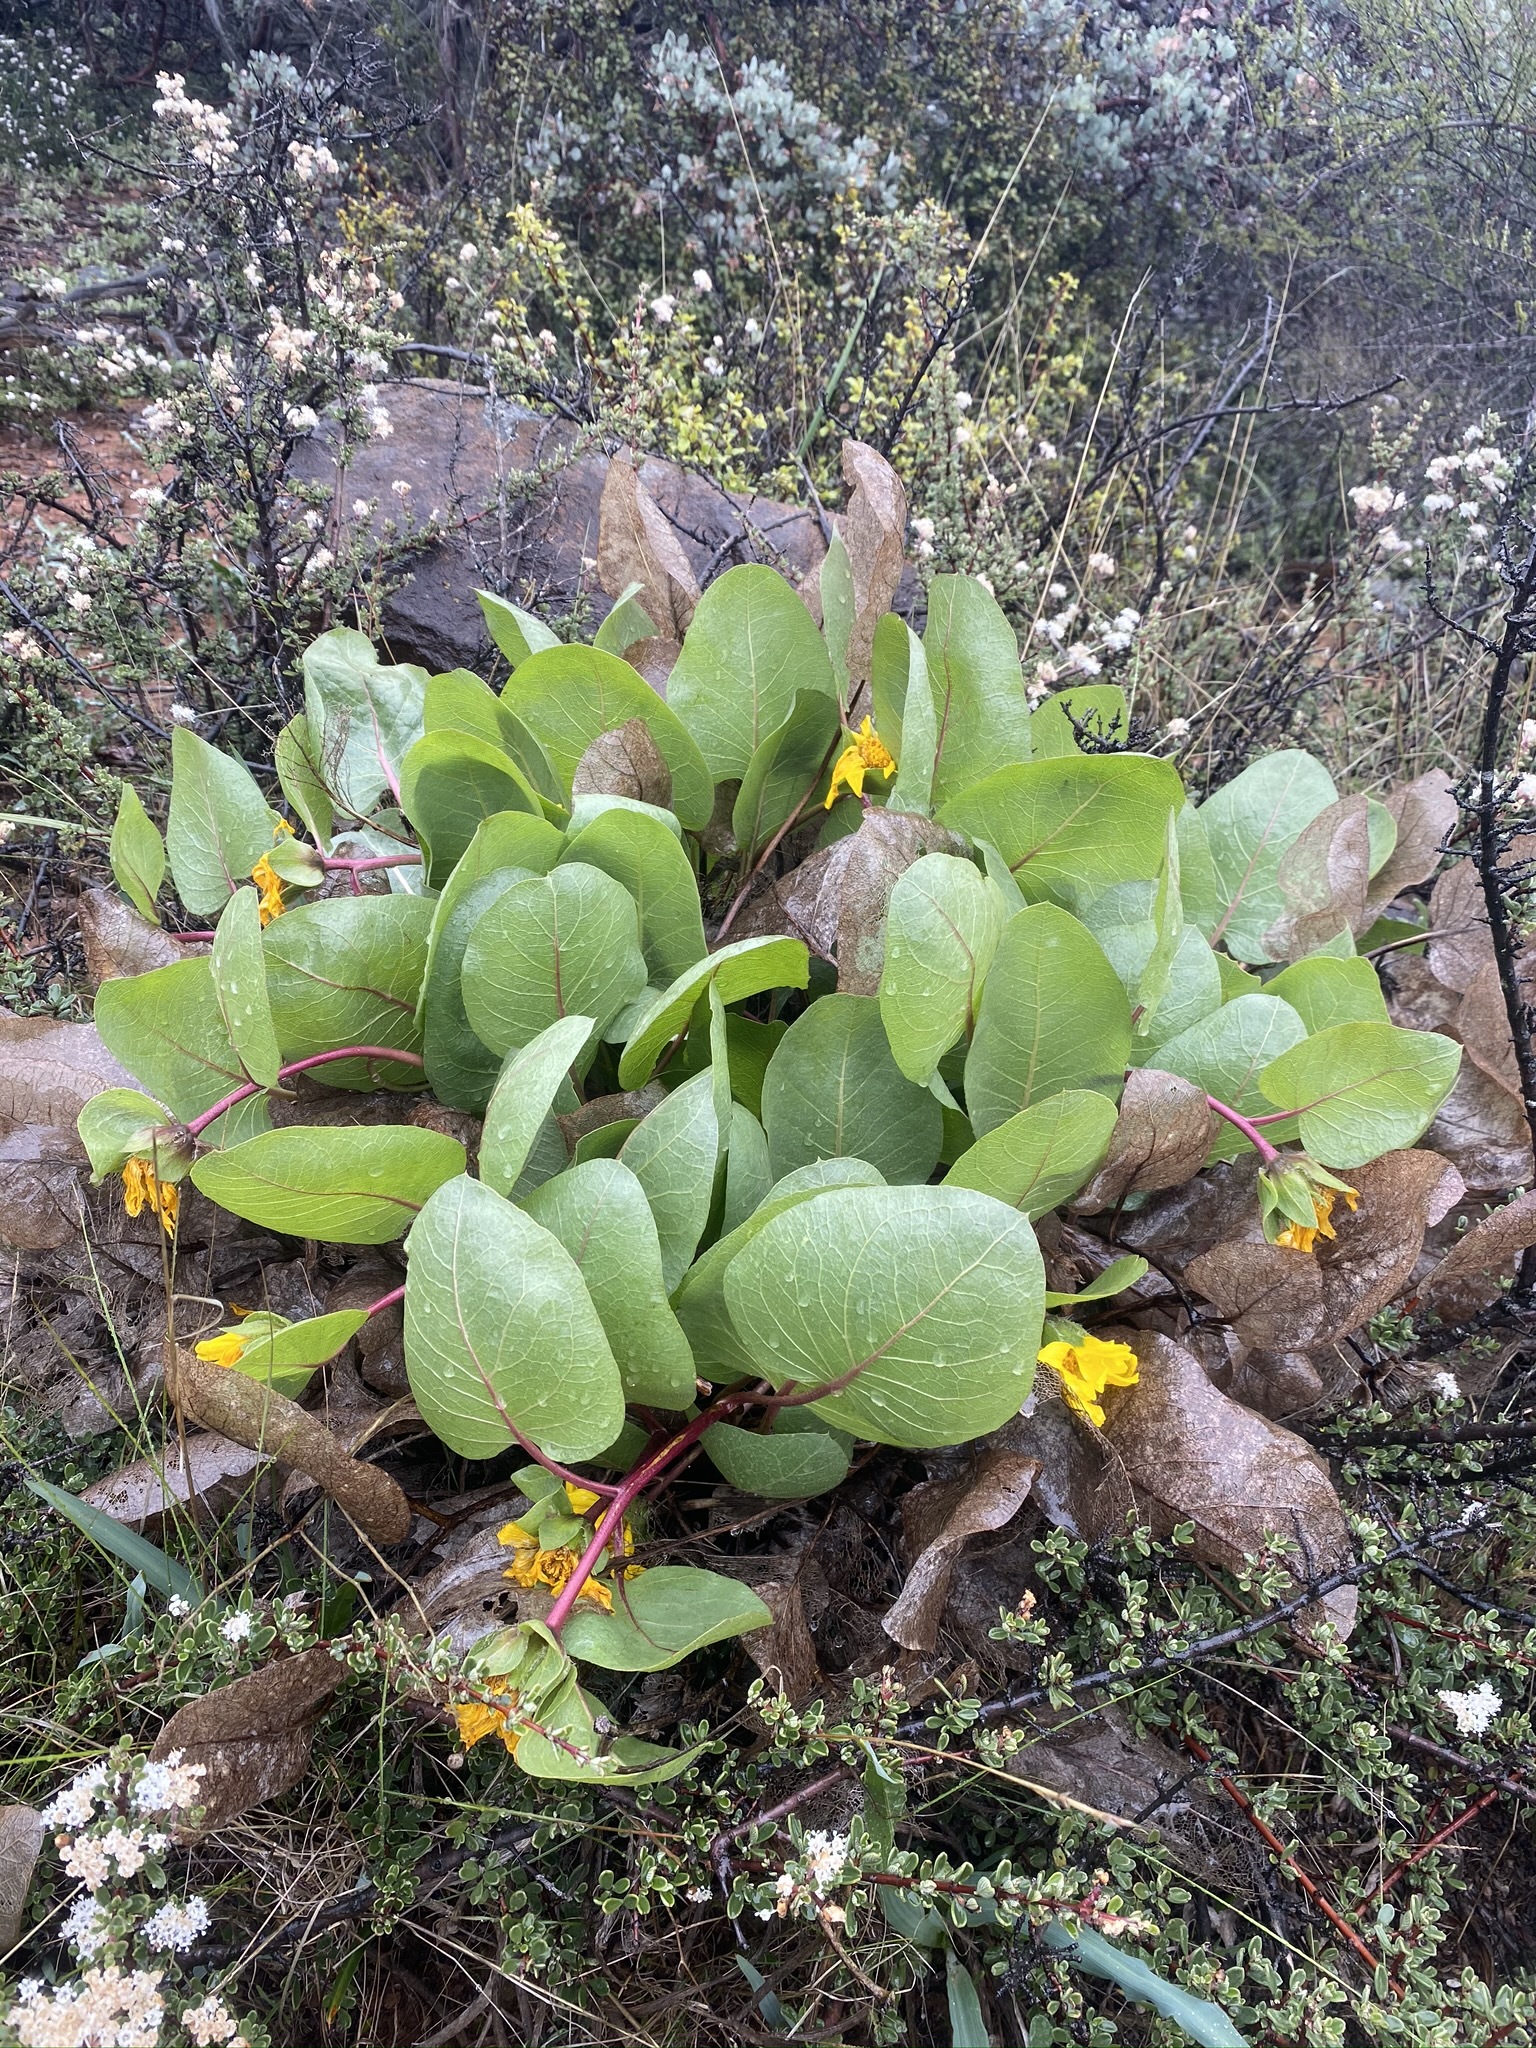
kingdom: Plantae
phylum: Tracheophyta
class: Magnoliopsida
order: Asterales
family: Asteraceae
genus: Agnorhiza
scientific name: Agnorhiza bolanderi
